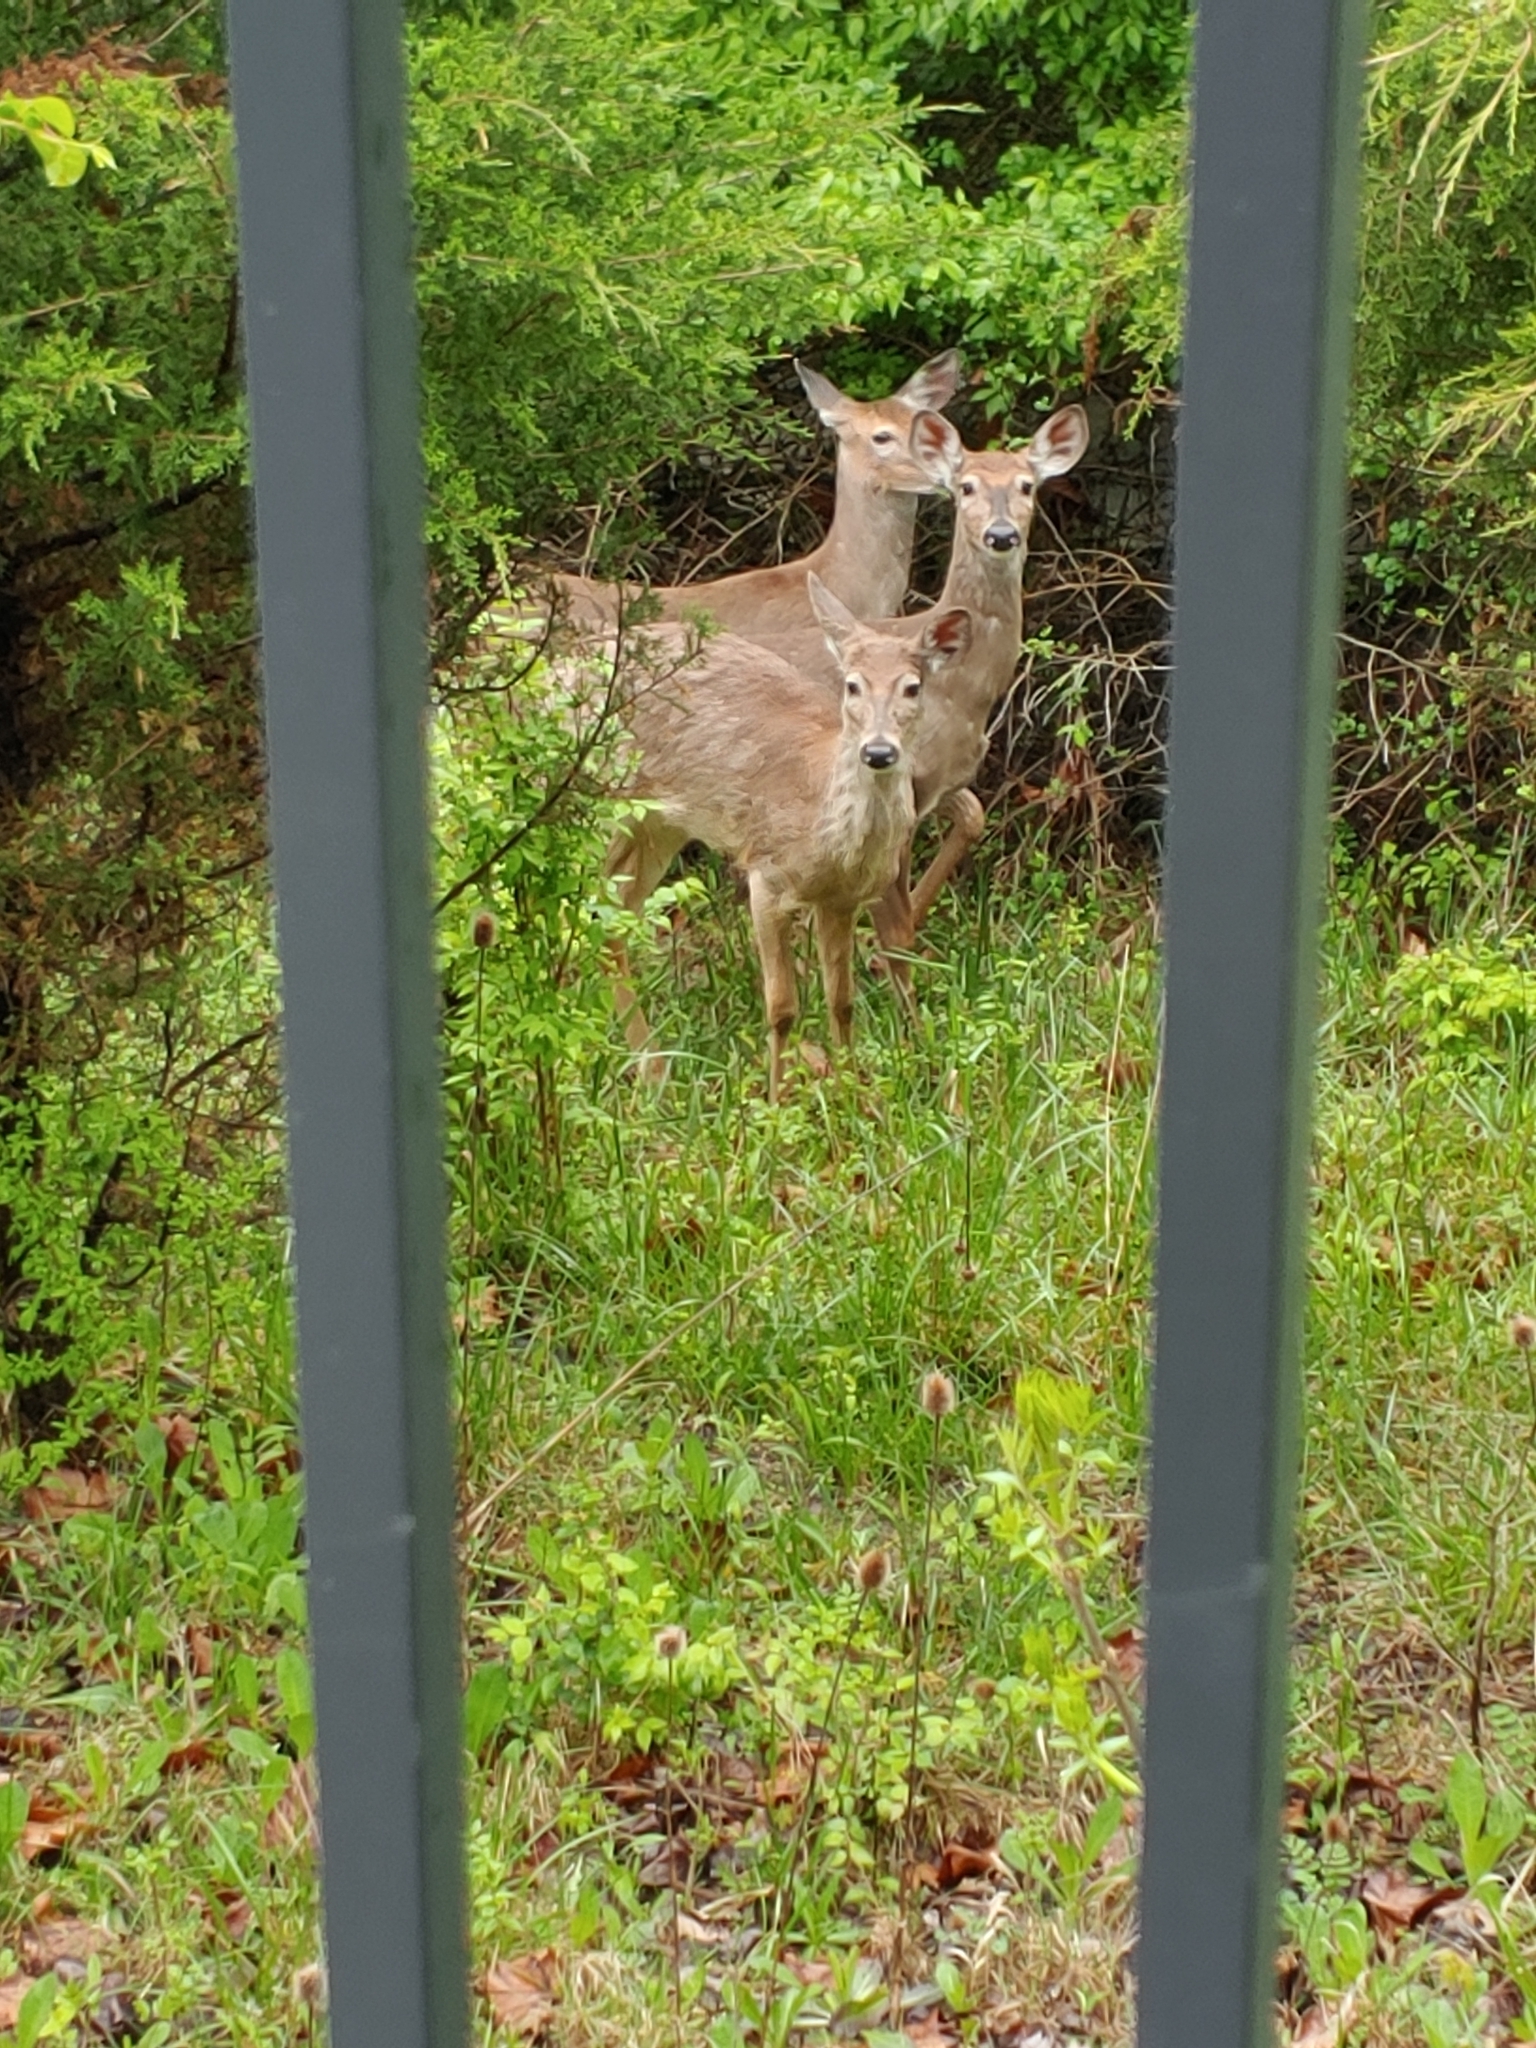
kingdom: Animalia
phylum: Chordata
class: Mammalia
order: Artiodactyla
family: Cervidae
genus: Odocoileus
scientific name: Odocoileus virginianus
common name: White-tailed deer
